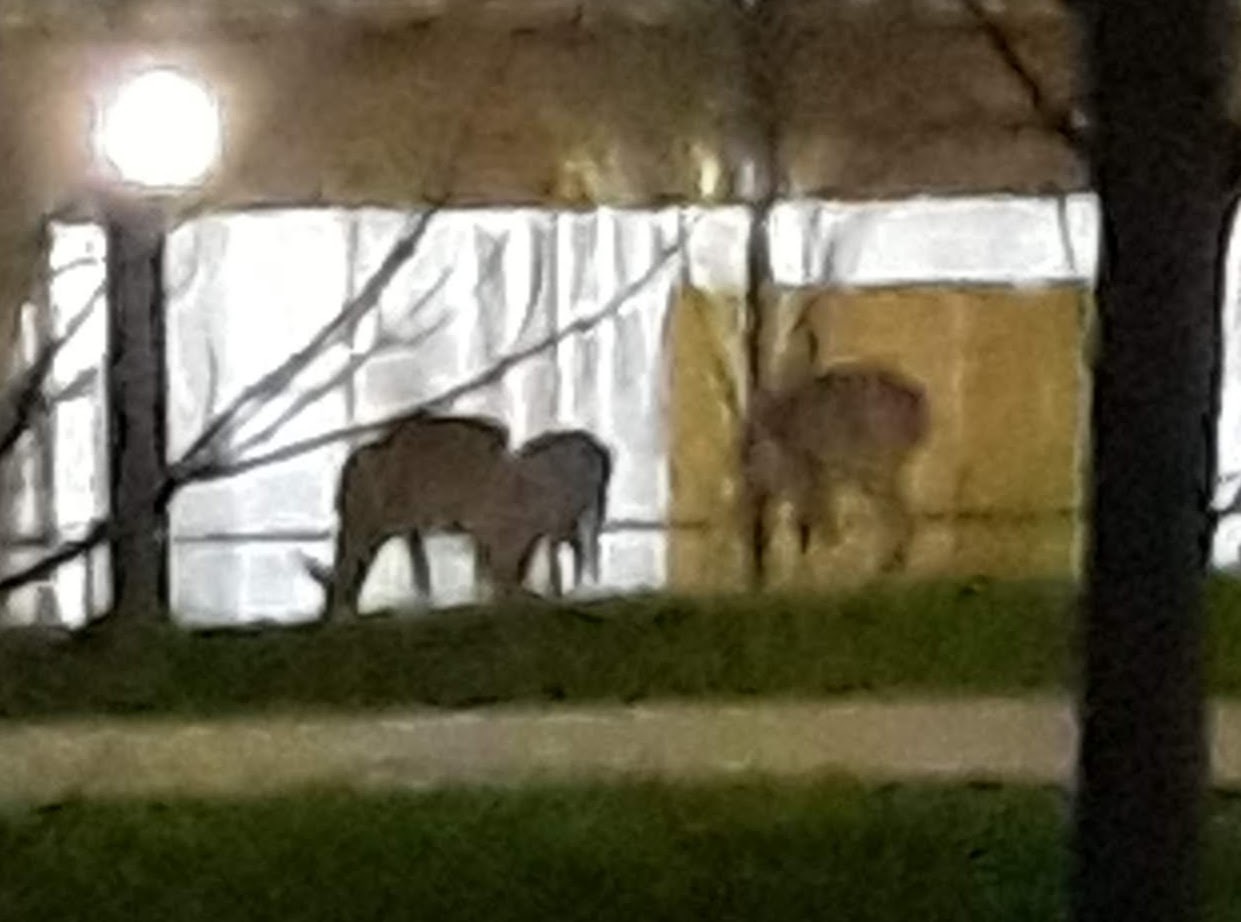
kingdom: Animalia
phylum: Chordata
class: Mammalia
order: Artiodactyla
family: Cervidae
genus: Odocoileus
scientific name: Odocoileus virginianus
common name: White-tailed deer
